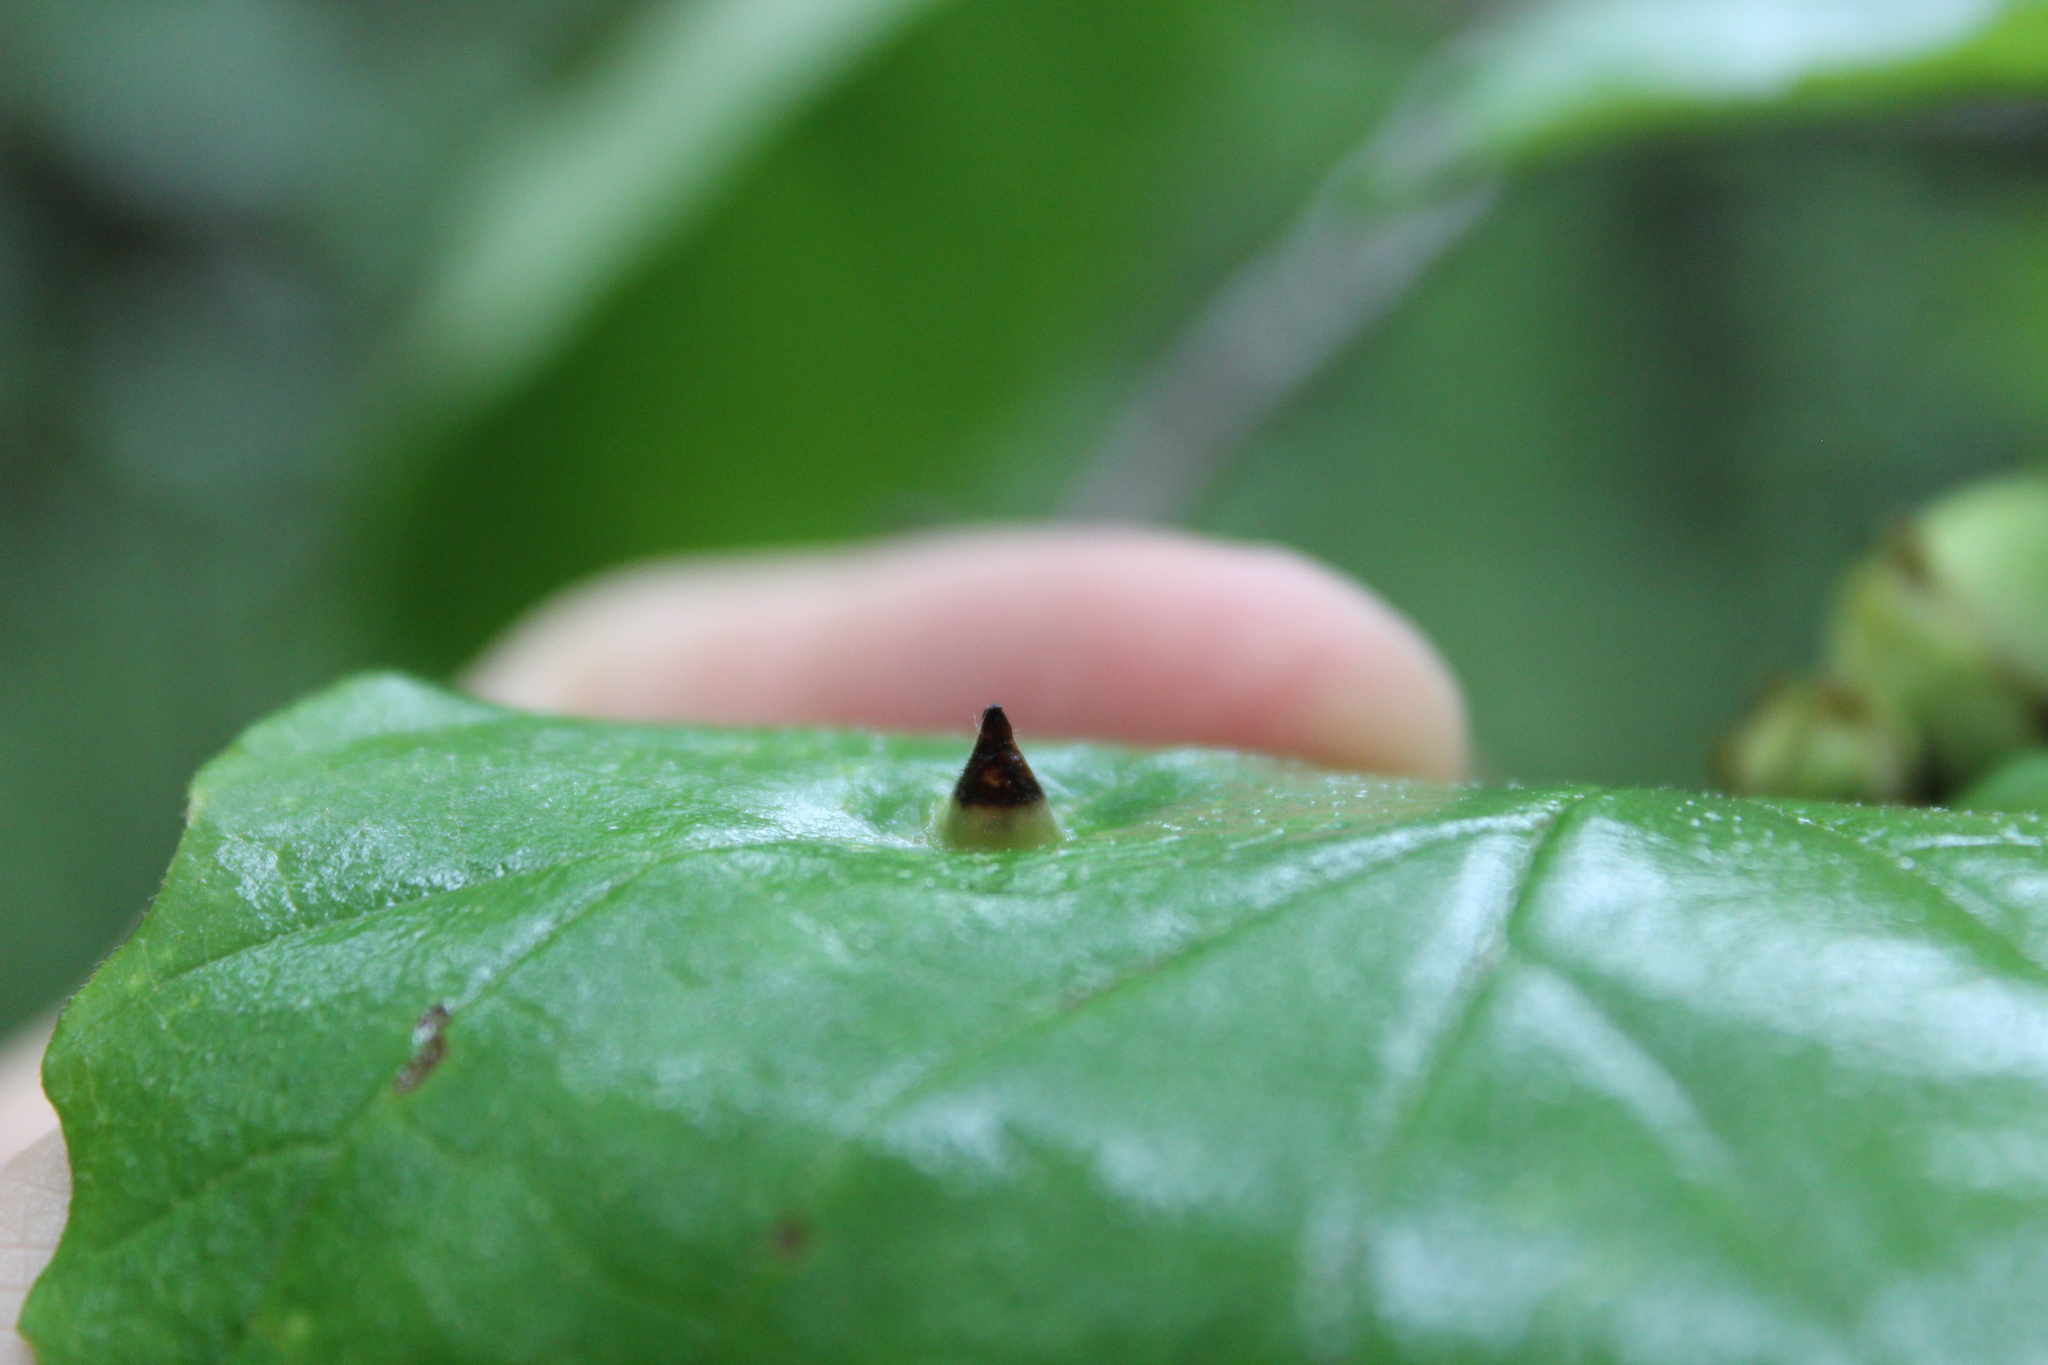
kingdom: Animalia
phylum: Arthropoda
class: Insecta
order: Hemiptera
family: Aphididae
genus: Hormaphis
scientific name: Hormaphis hamamelidis
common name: Witch-hazel cone gall aphid
